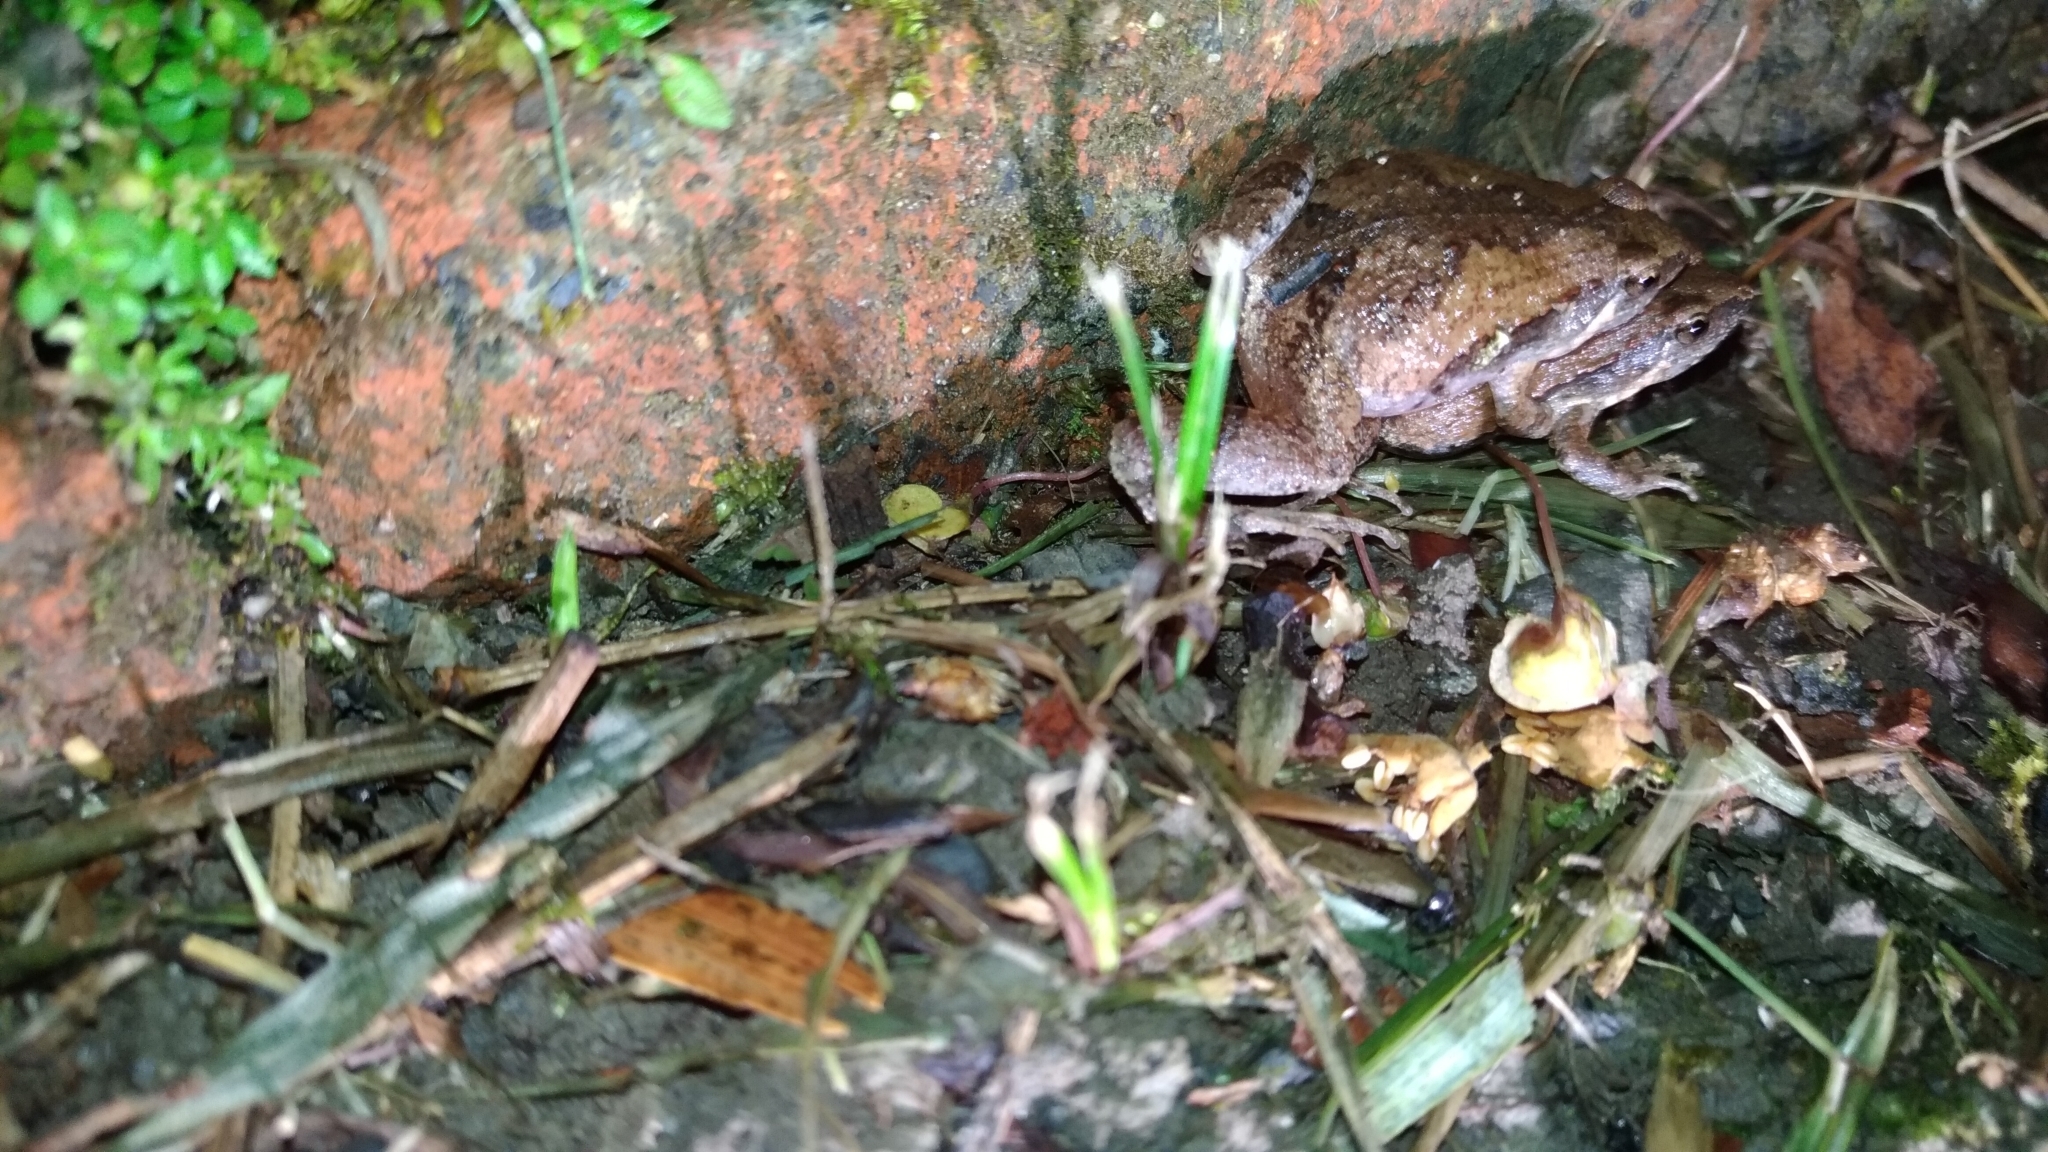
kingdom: Animalia
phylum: Chordata
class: Amphibia
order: Anura
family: Microhylidae
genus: Microhyla
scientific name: Microhyla fissipes
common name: Ornate narrow-mouthed frog
